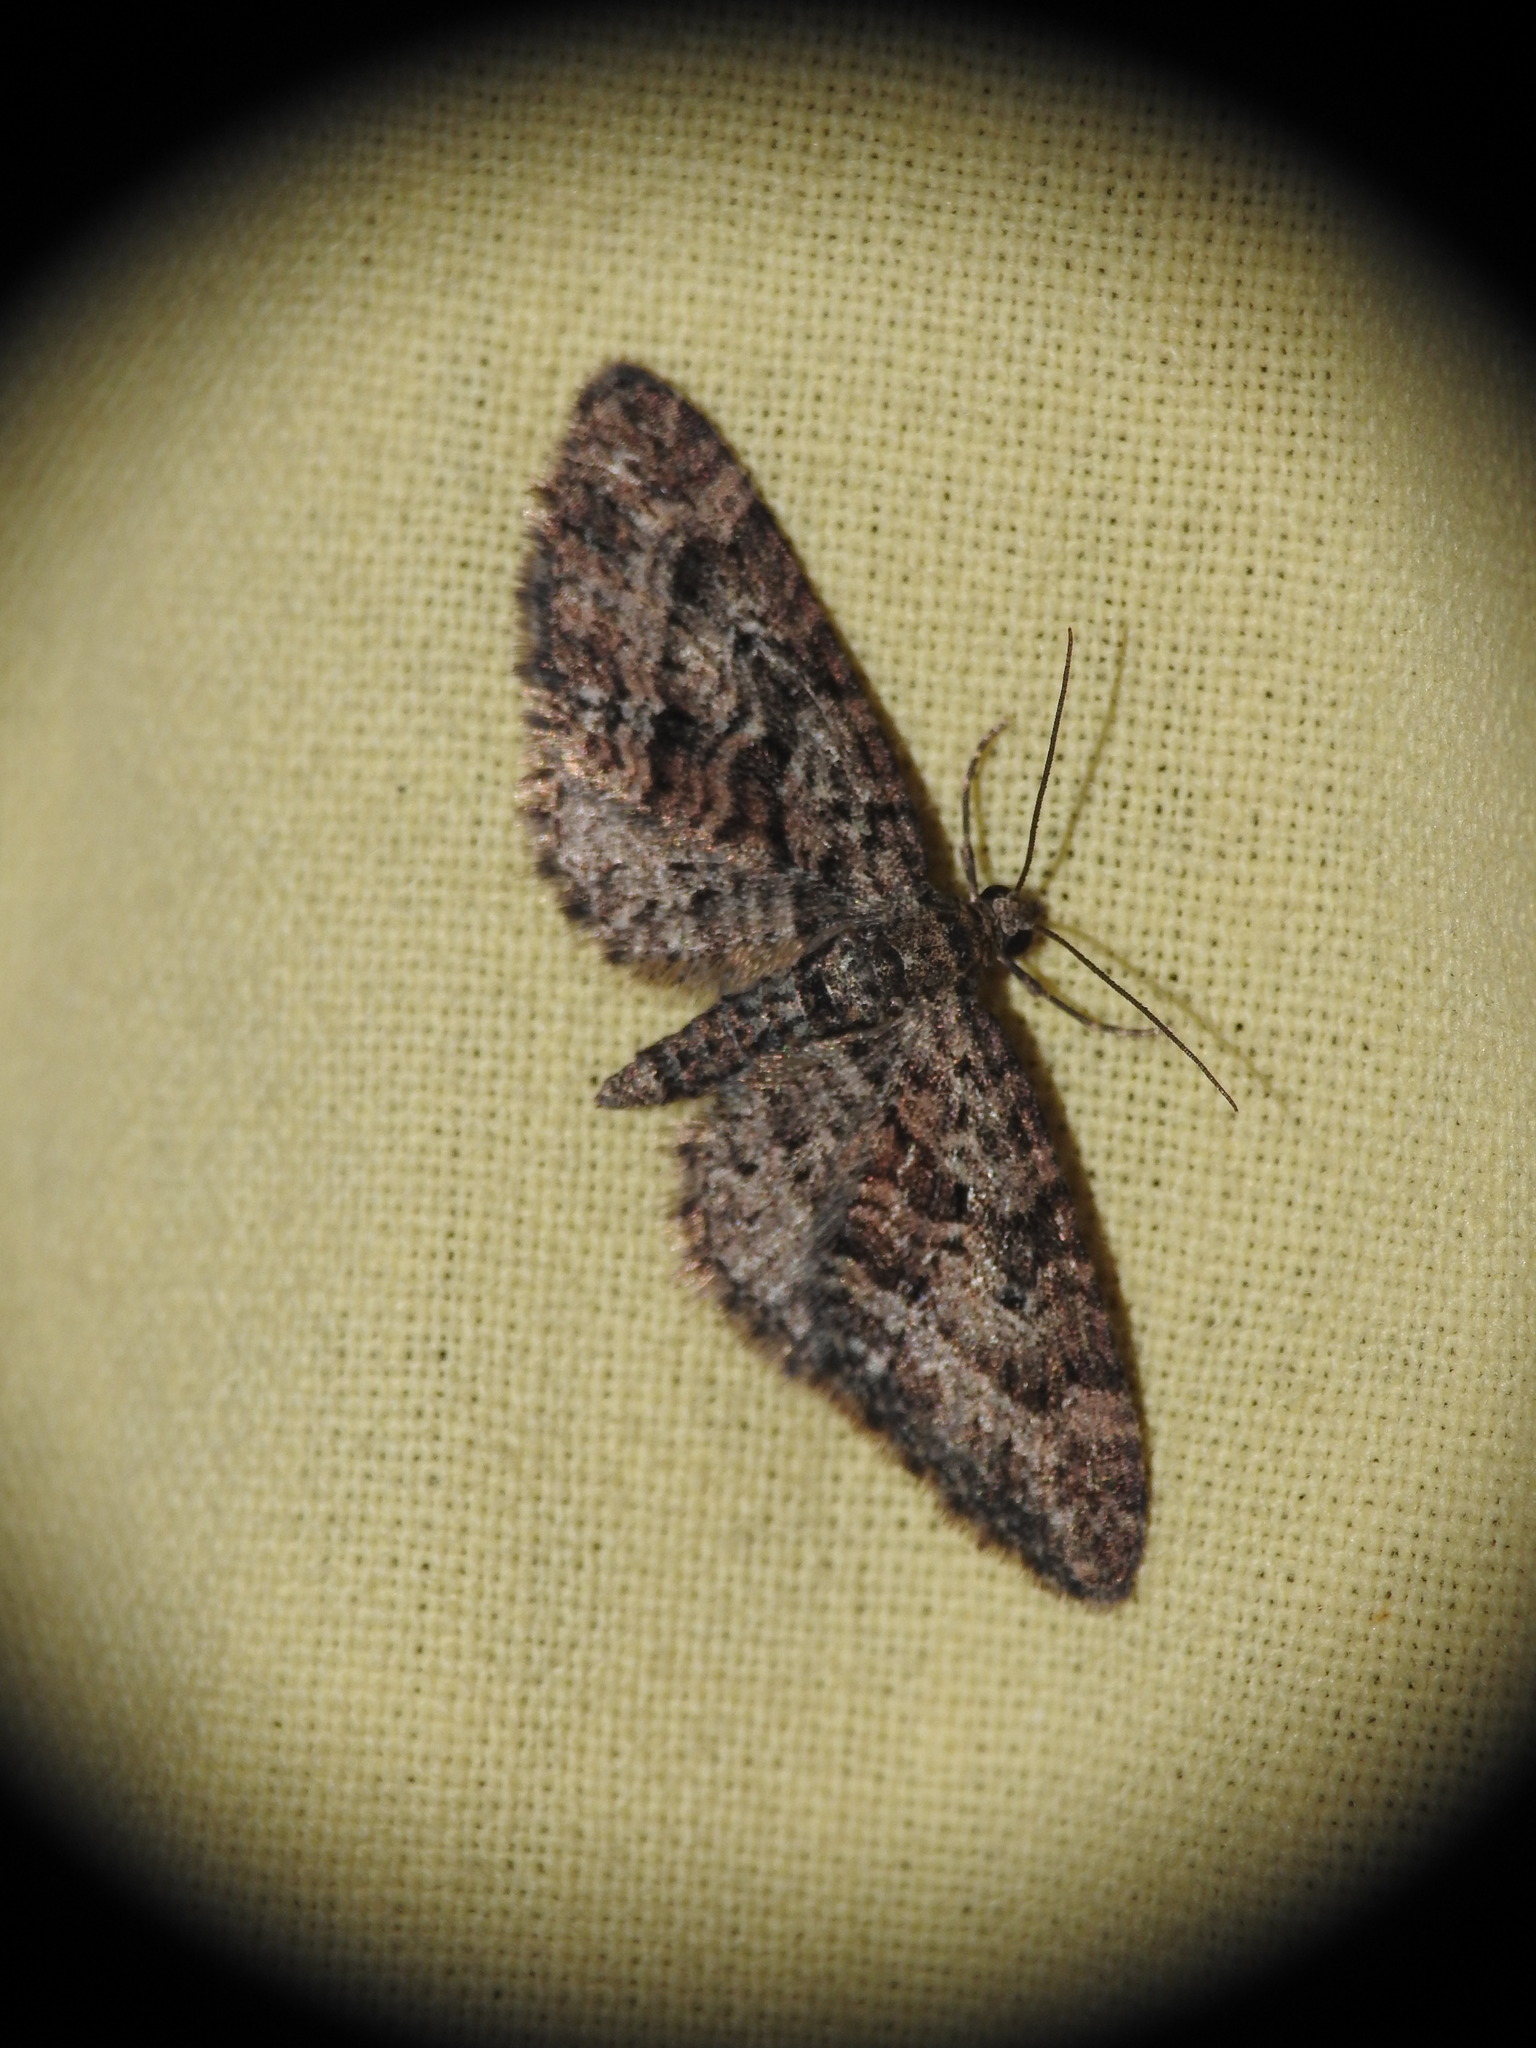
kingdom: Animalia
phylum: Arthropoda
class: Insecta
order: Lepidoptera
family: Geometridae
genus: Eupithecia
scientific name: Eupithecia cocciferata
